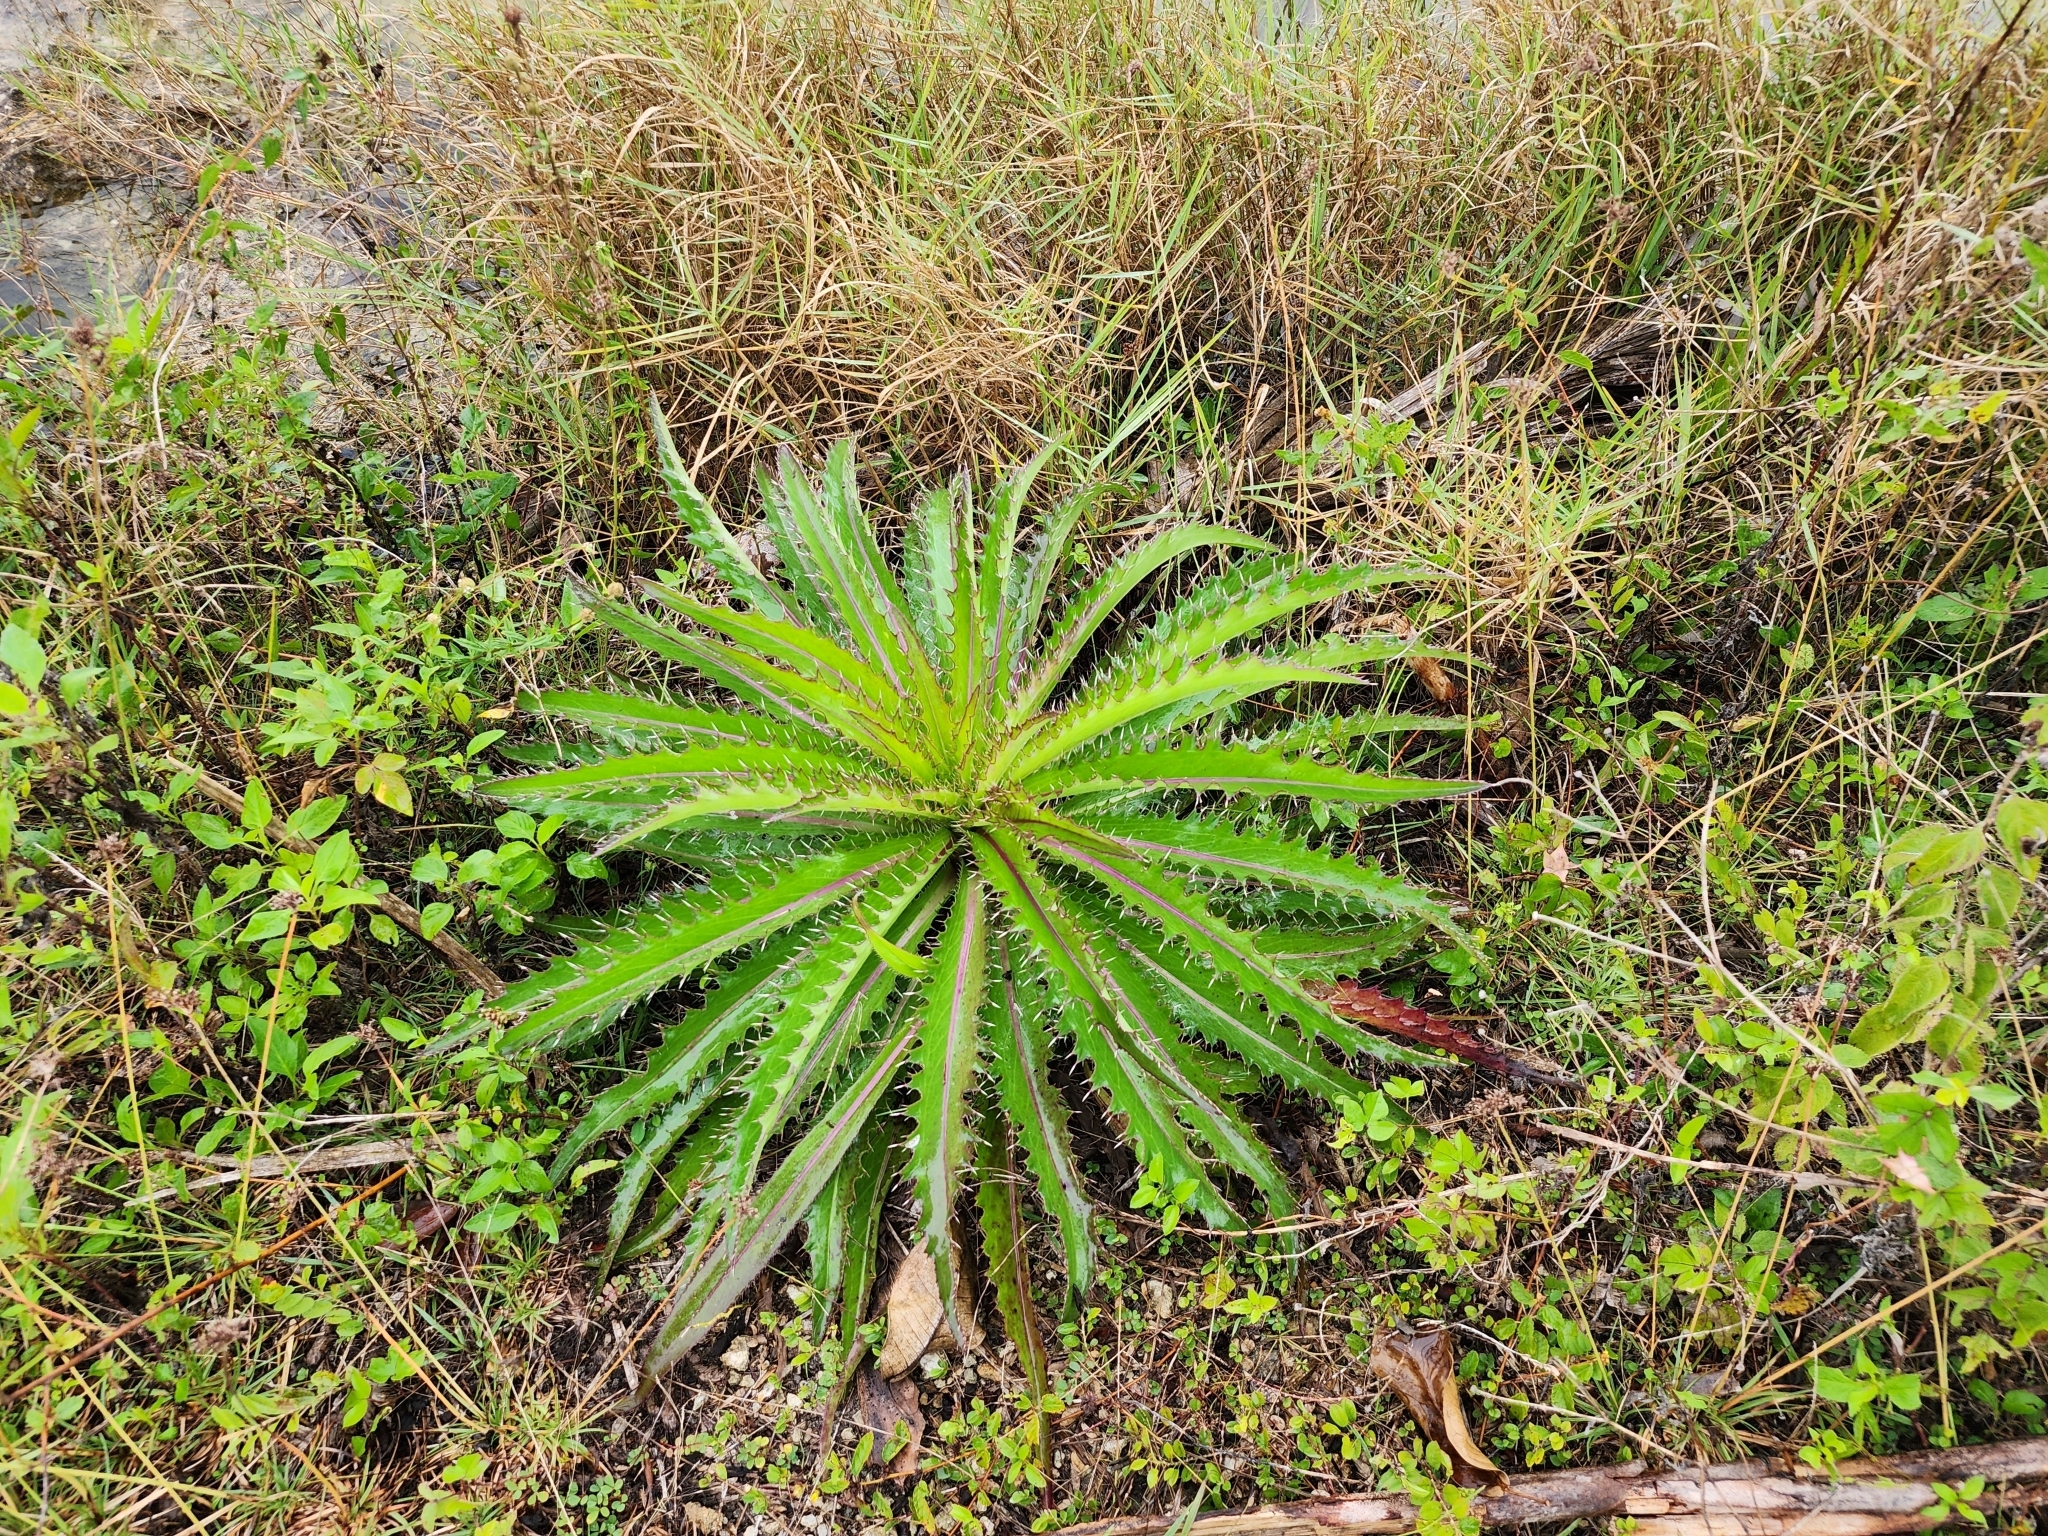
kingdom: Plantae
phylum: Tracheophyta
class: Magnoliopsida
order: Asterales
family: Asteraceae
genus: Cirsium
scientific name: Cirsium horridulum
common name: Bristly thistle
